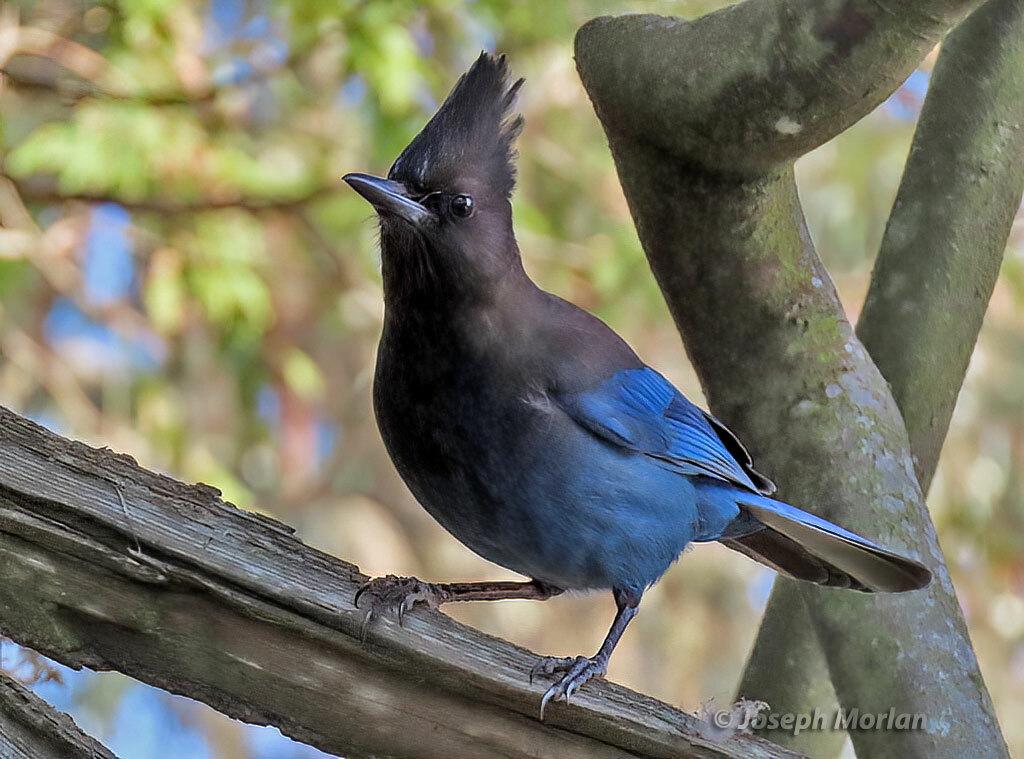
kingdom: Animalia
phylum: Chordata
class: Aves
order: Passeriformes
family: Corvidae
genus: Cyanocitta
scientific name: Cyanocitta stelleri
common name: Steller's jay
